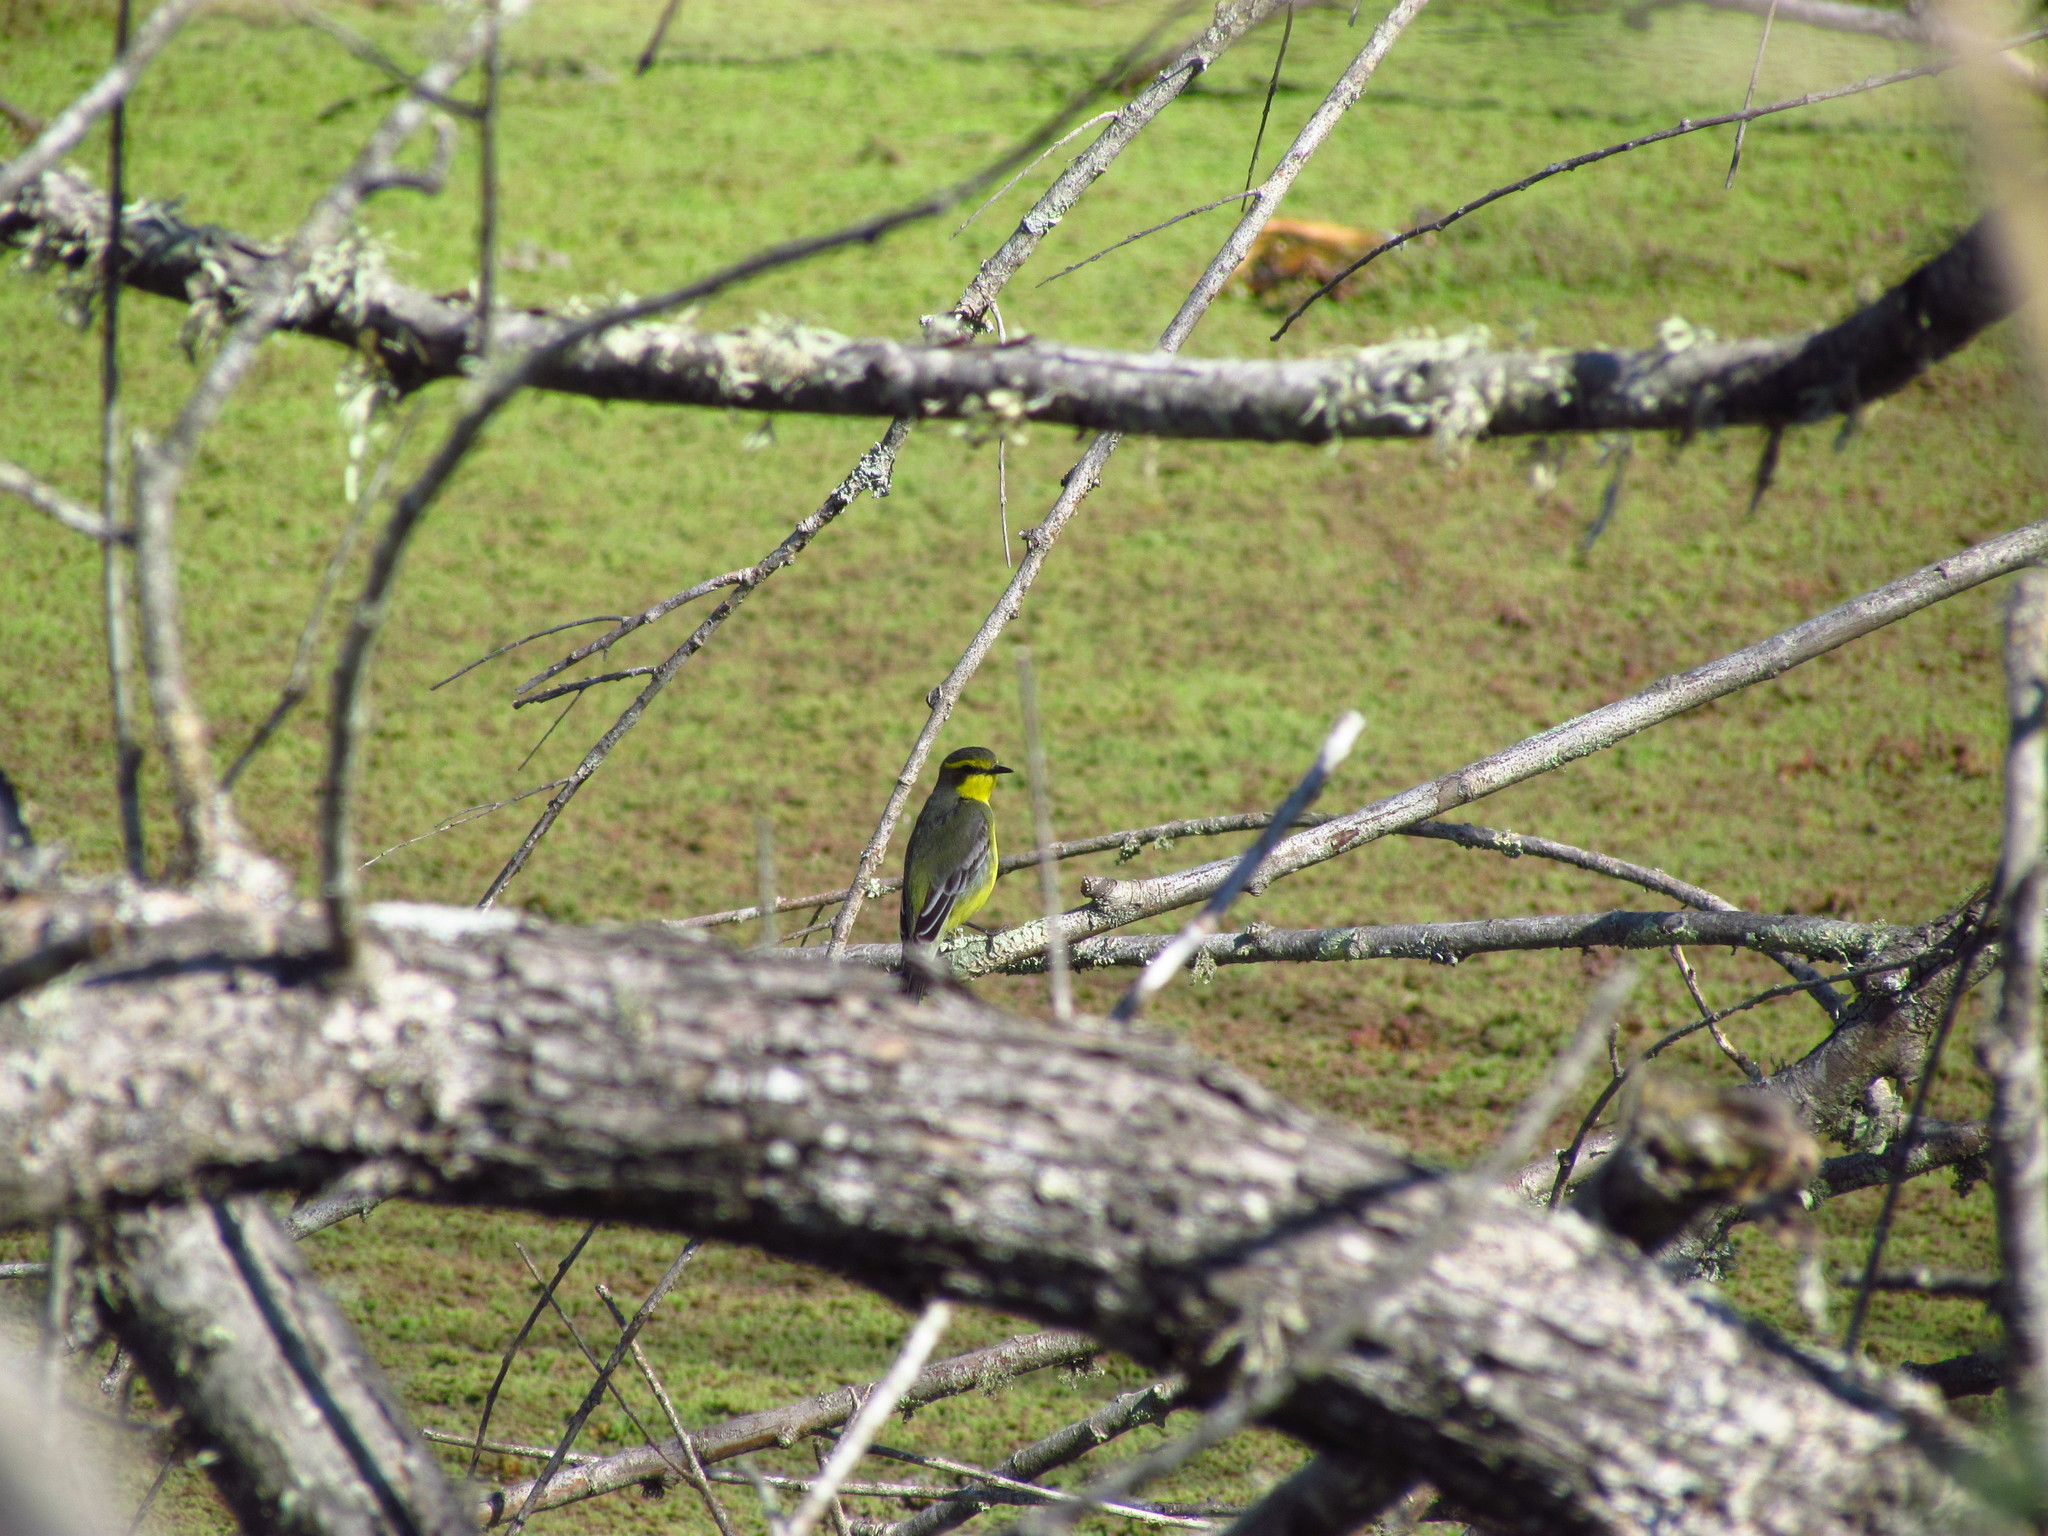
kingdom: Animalia
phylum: Chordata
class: Aves
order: Passeriformes
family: Tyrannidae
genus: Satrapa
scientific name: Satrapa icterophrys
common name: Yellow-browed tyrant
